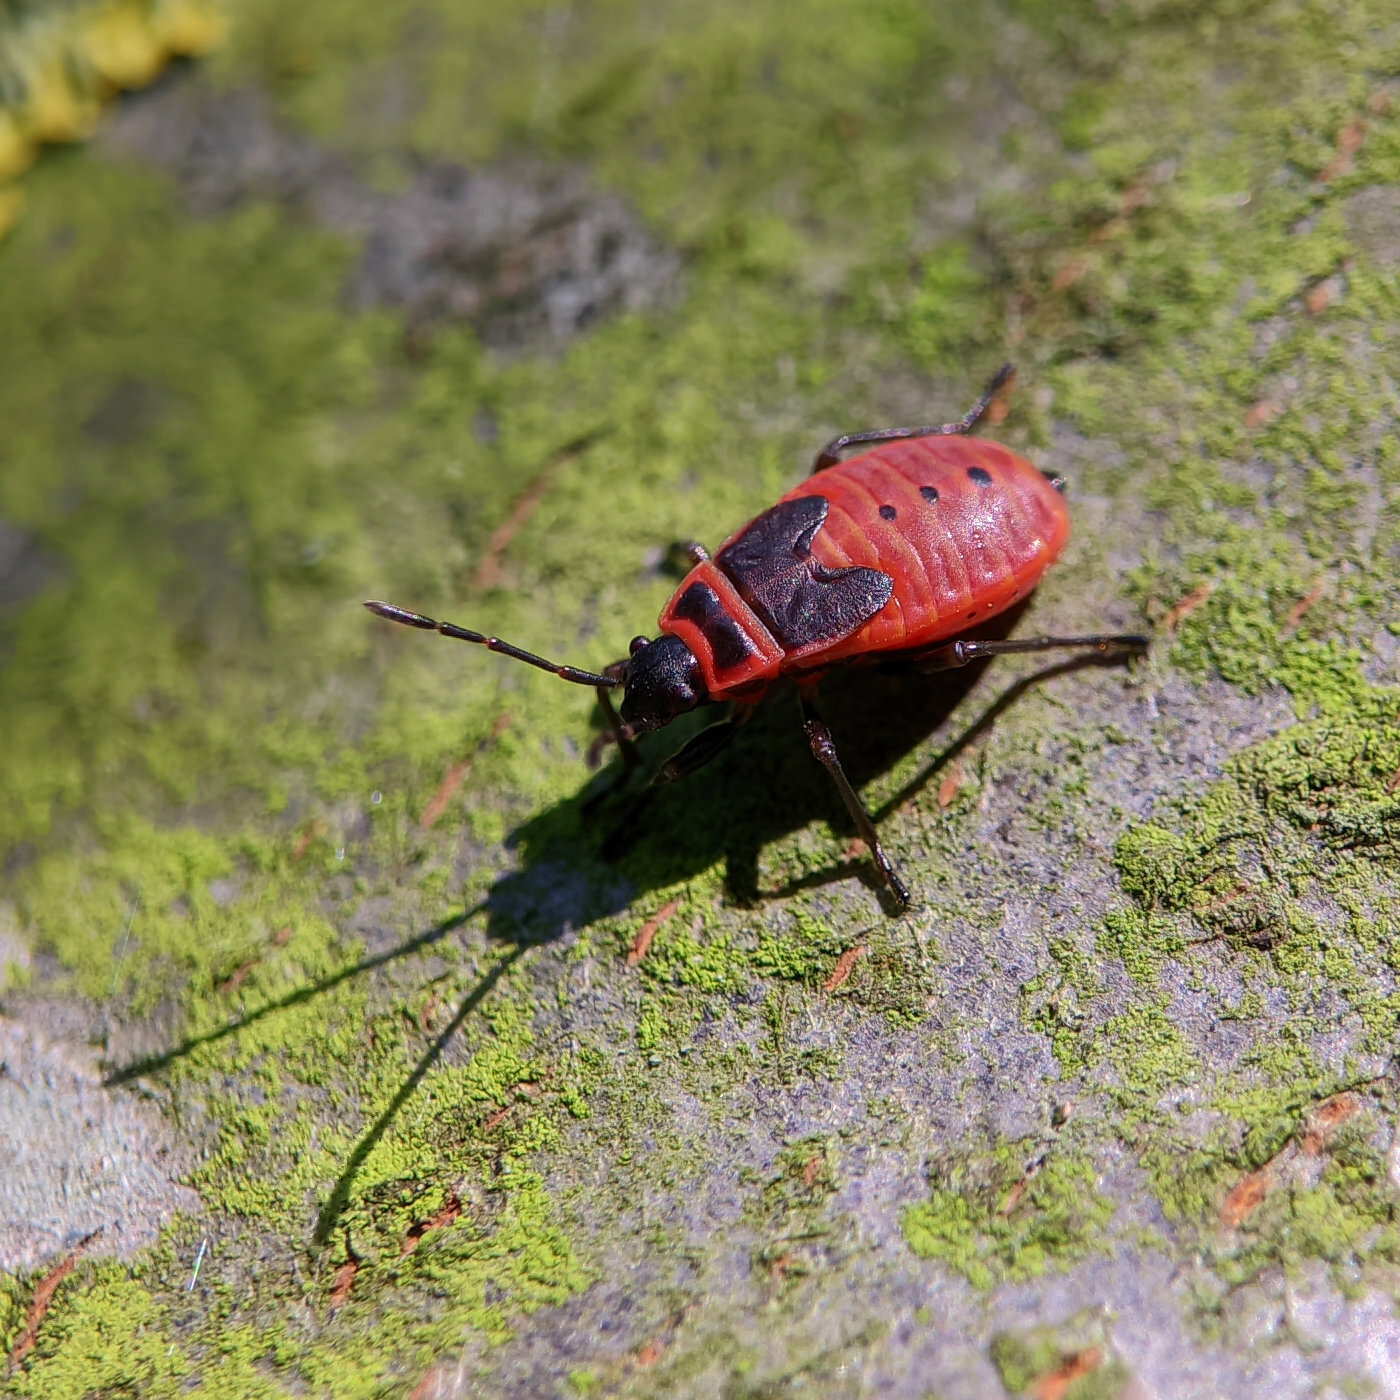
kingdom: Animalia
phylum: Arthropoda
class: Insecta
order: Hemiptera
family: Pyrrhocoridae
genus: Pyrrhocoris
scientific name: Pyrrhocoris apterus
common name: Firebug
